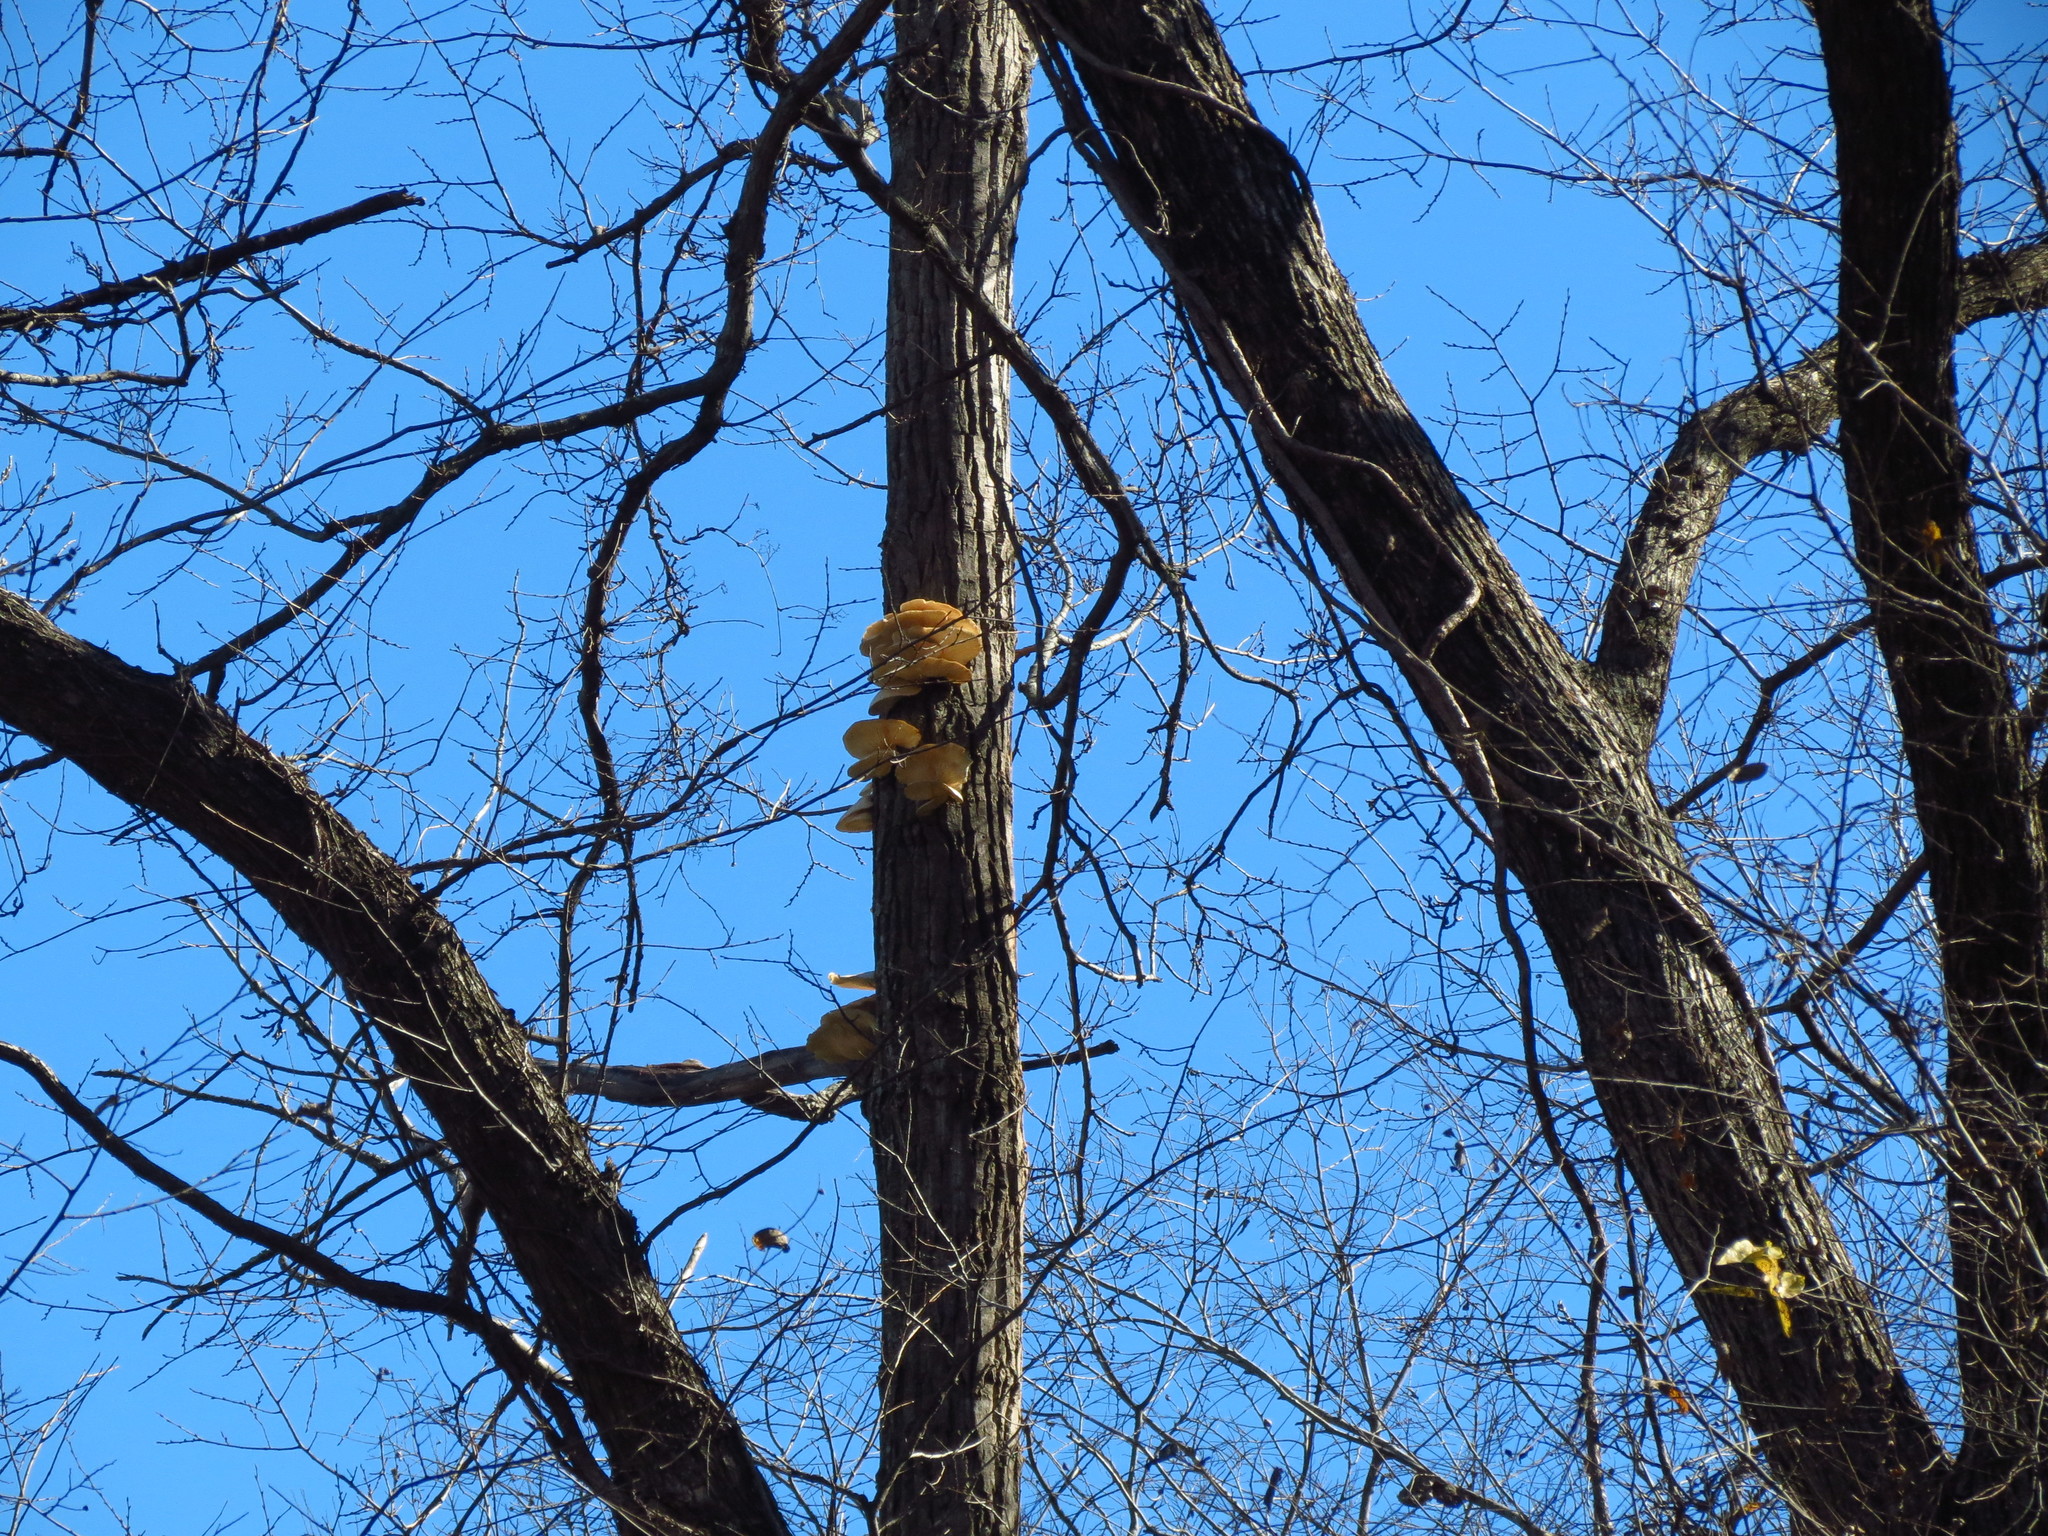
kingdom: Fungi
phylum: Basidiomycota
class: Agaricomycetes
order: Agaricales
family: Pleurotaceae
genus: Pleurotus
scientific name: Pleurotus ostreatus
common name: Oyster mushroom
